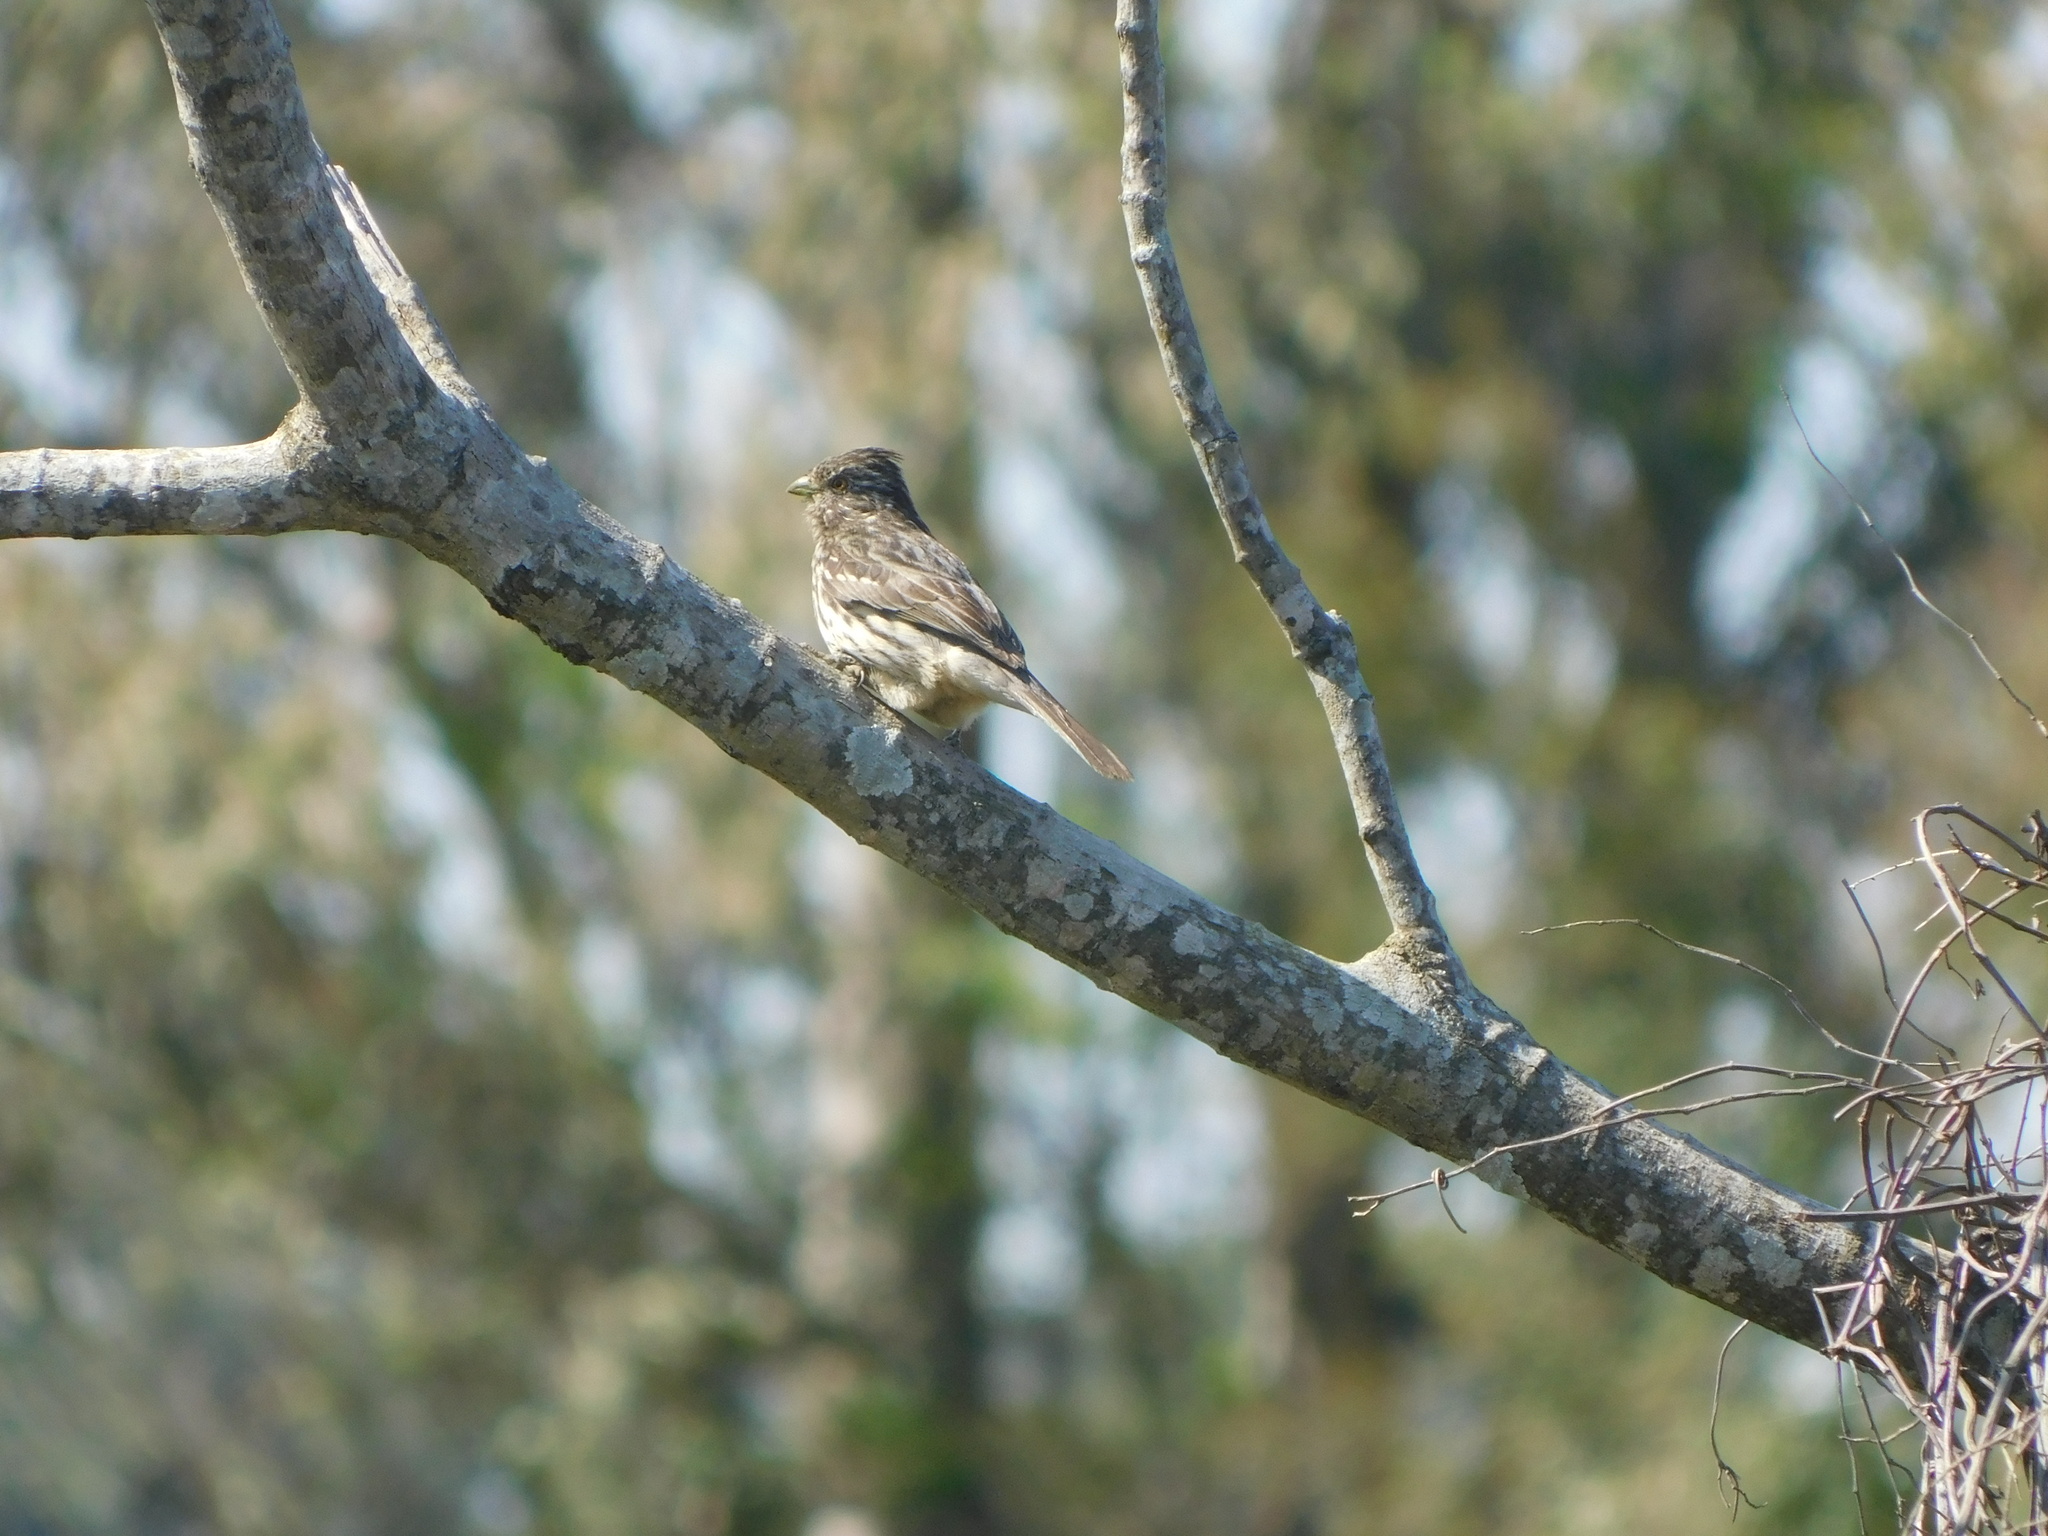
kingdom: Animalia
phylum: Chordata
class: Aves
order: Passeriformes
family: Cotingidae
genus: Phytotoma
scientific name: Phytotoma rutila
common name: White-tipped plantcutter
